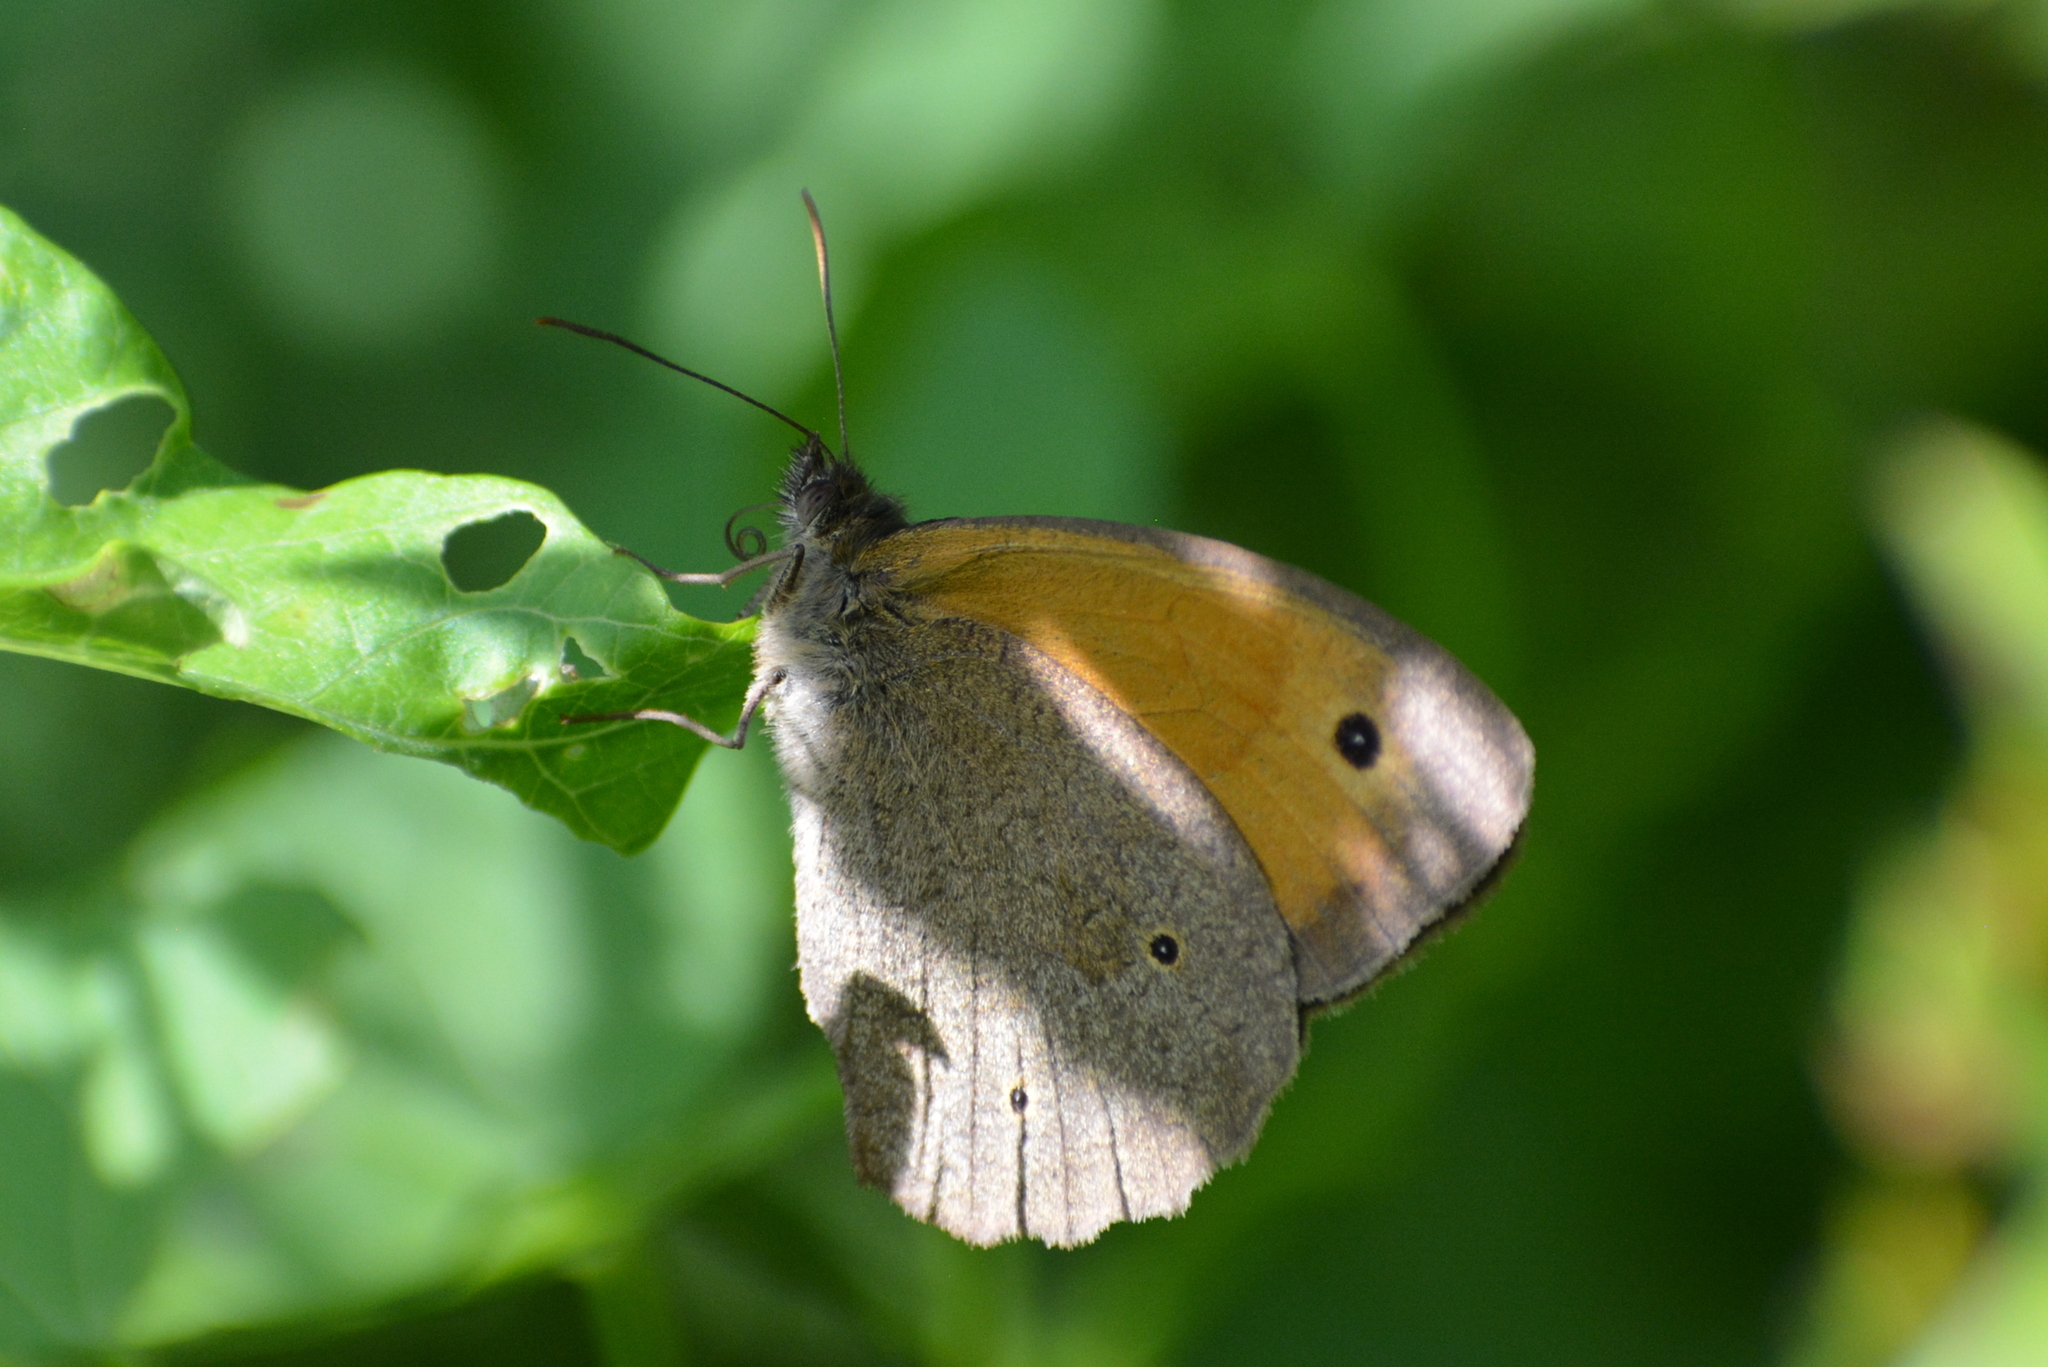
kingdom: Animalia
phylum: Arthropoda
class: Insecta
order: Lepidoptera
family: Nymphalidae
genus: Maniola
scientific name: Maniola jurtina
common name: Meadow brown
